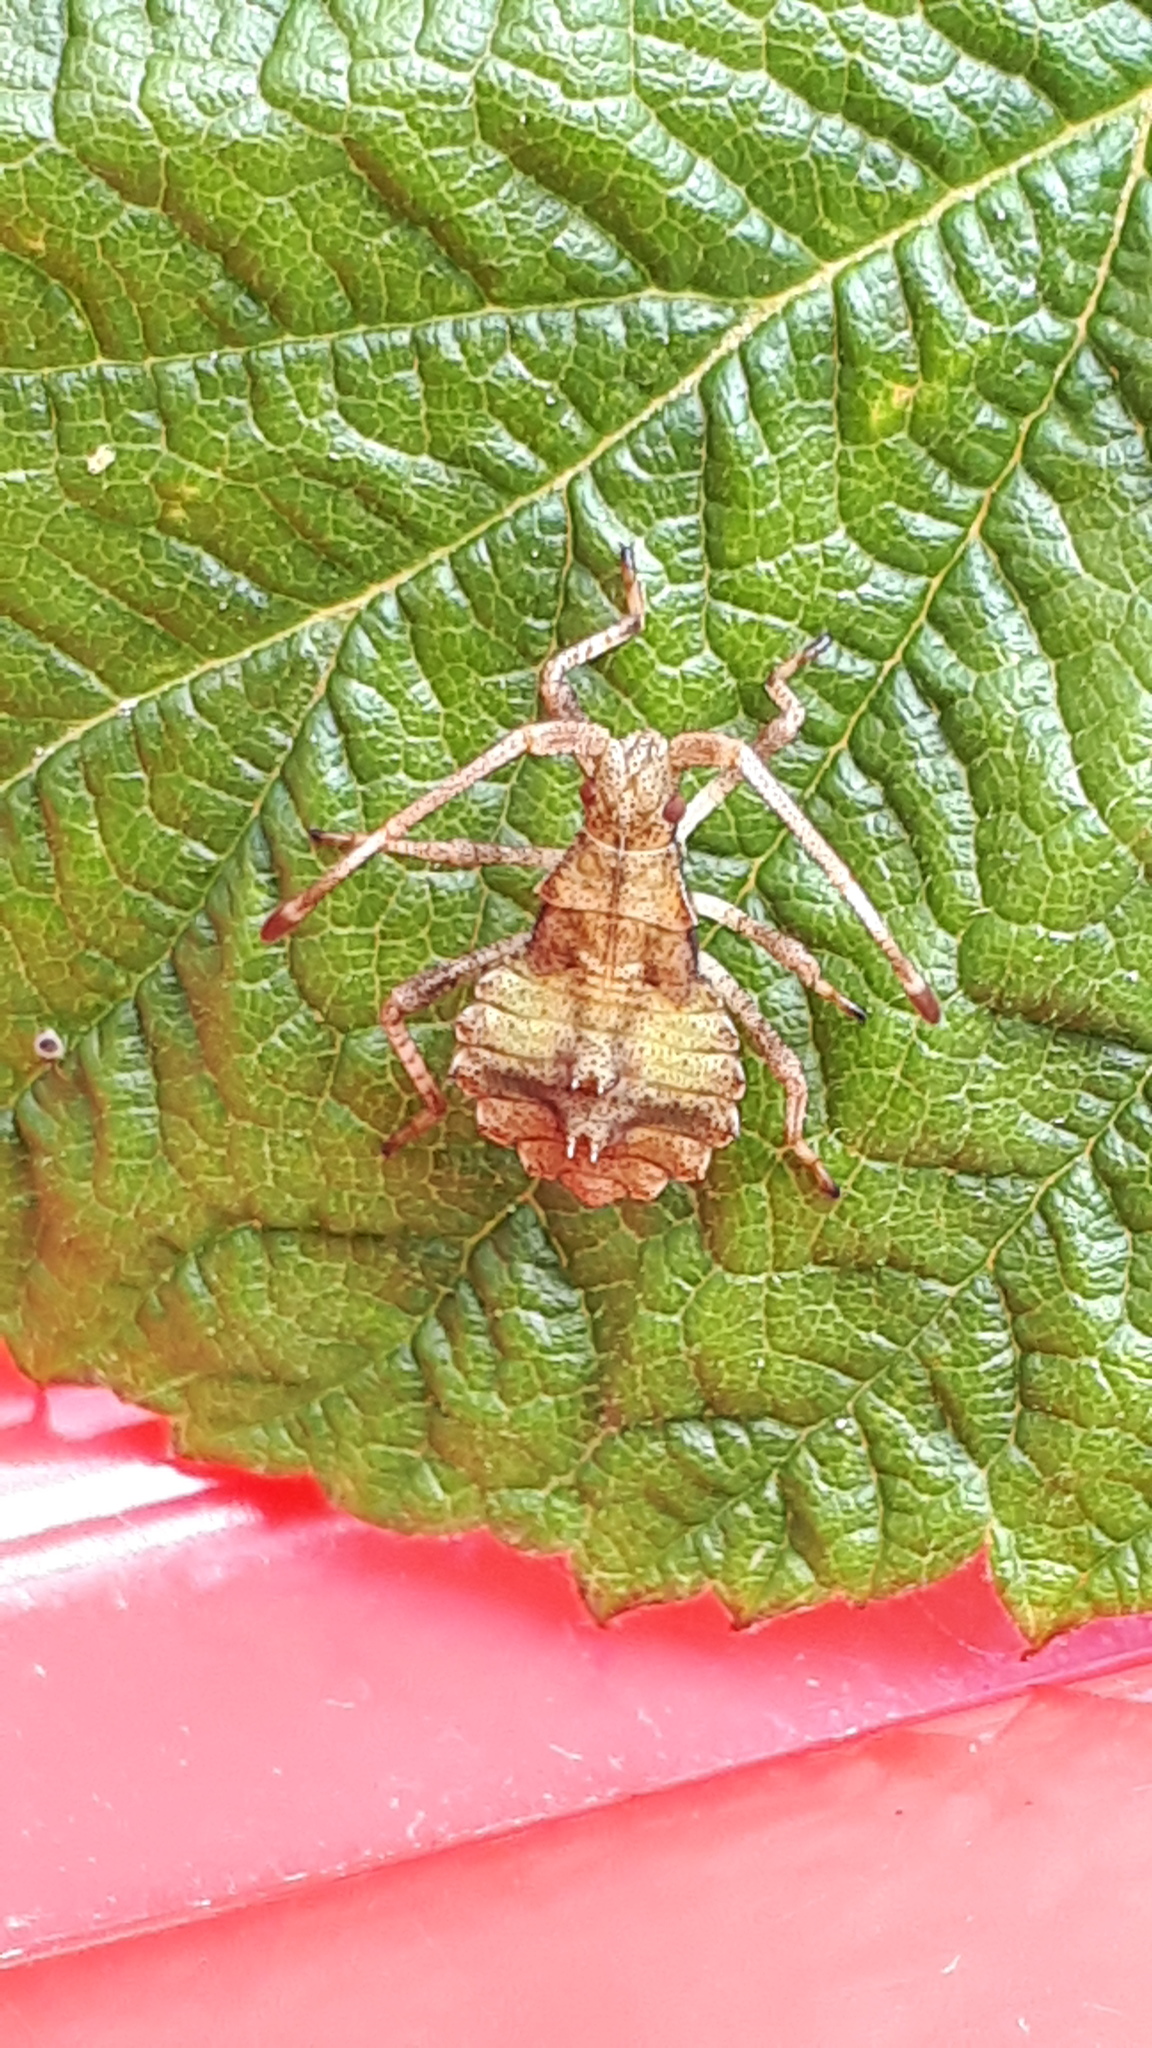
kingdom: Animalia
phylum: Arthropoda
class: Insecta
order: Hemiptera
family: Coreidae
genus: Coreus
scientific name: Coreus marginatus
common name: Dock bug
